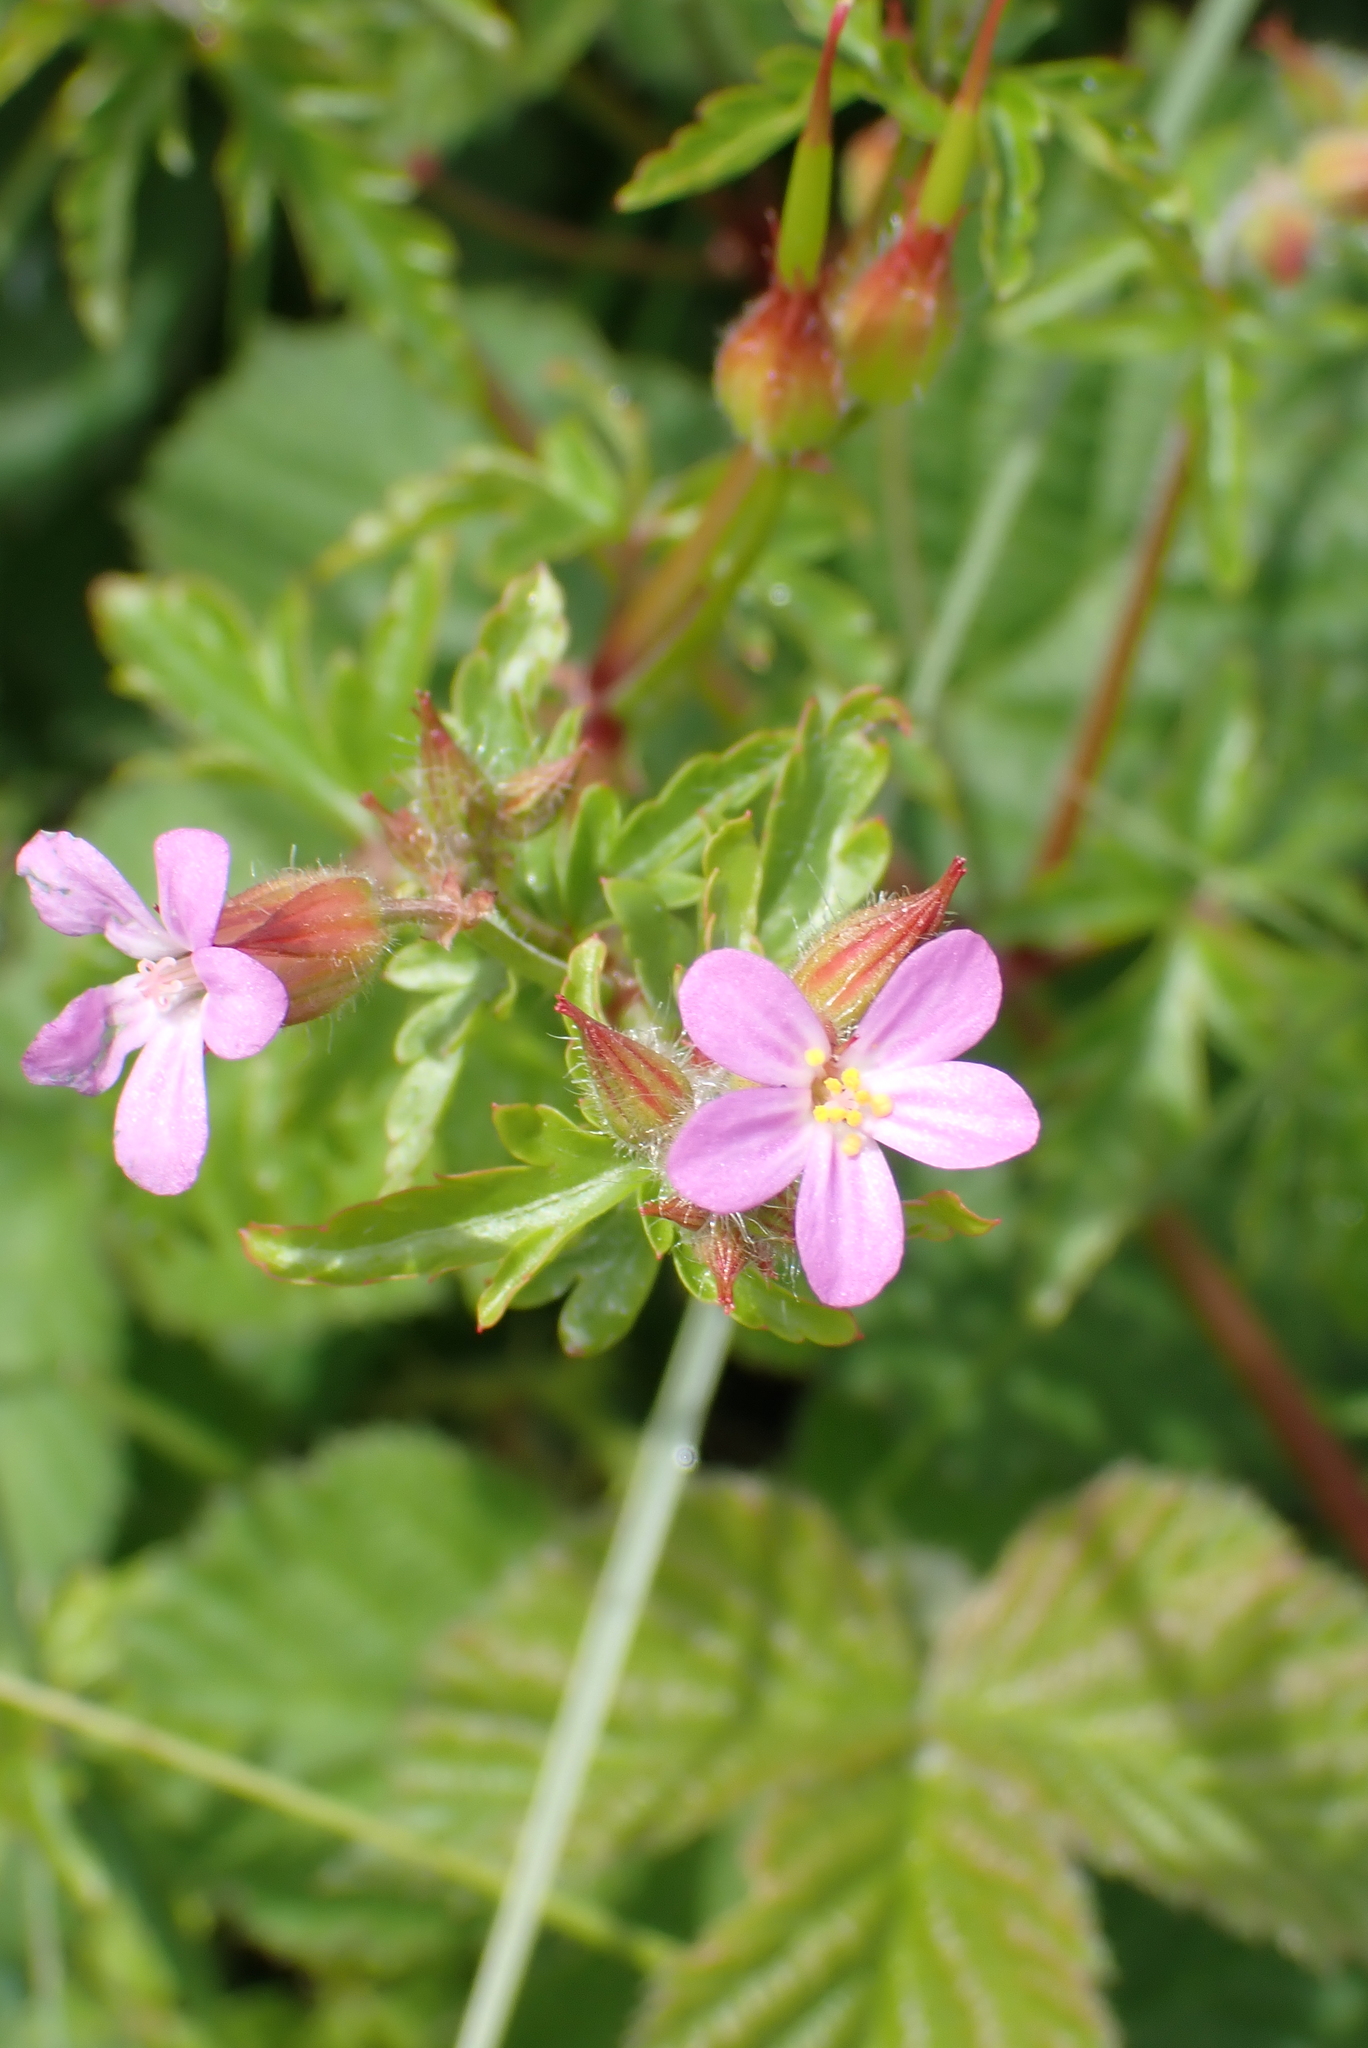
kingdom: Plantae
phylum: Tracheophyta
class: Magnoliopsida
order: Geraniales
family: Geraniaceae
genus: Geranium
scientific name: Geranium purpureum
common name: Little-robin
